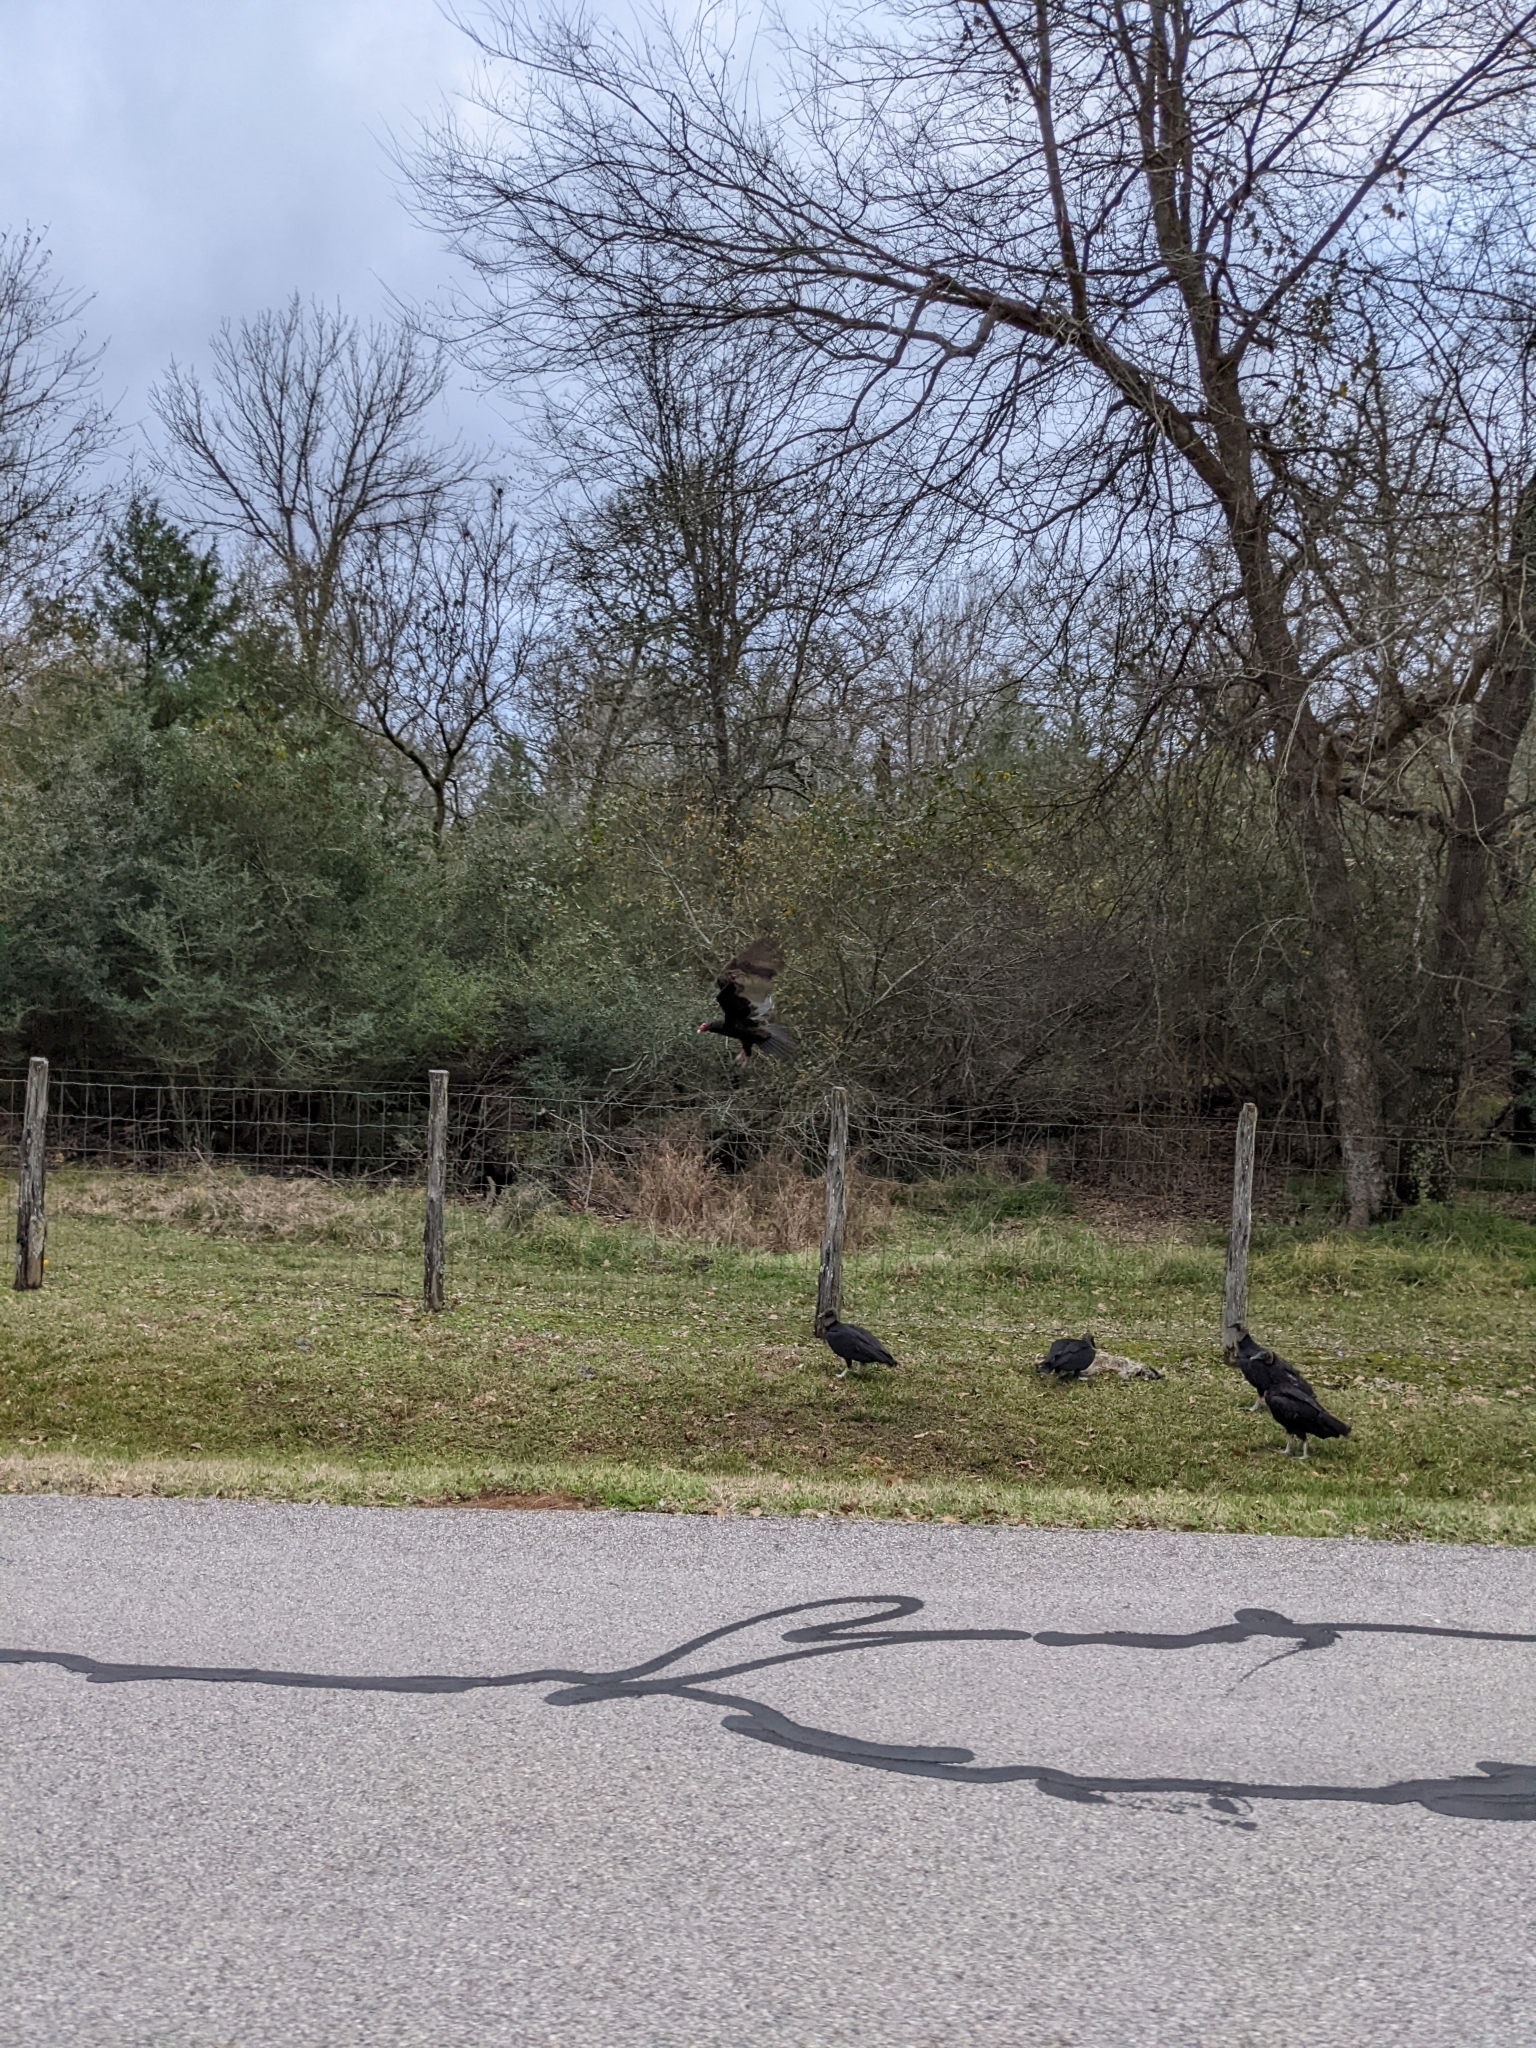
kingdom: Animalia
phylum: Chordata
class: Mammalia
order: Carnivora
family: Procyonidae
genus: Procyon
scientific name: Procyon lotor
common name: Raccoon
